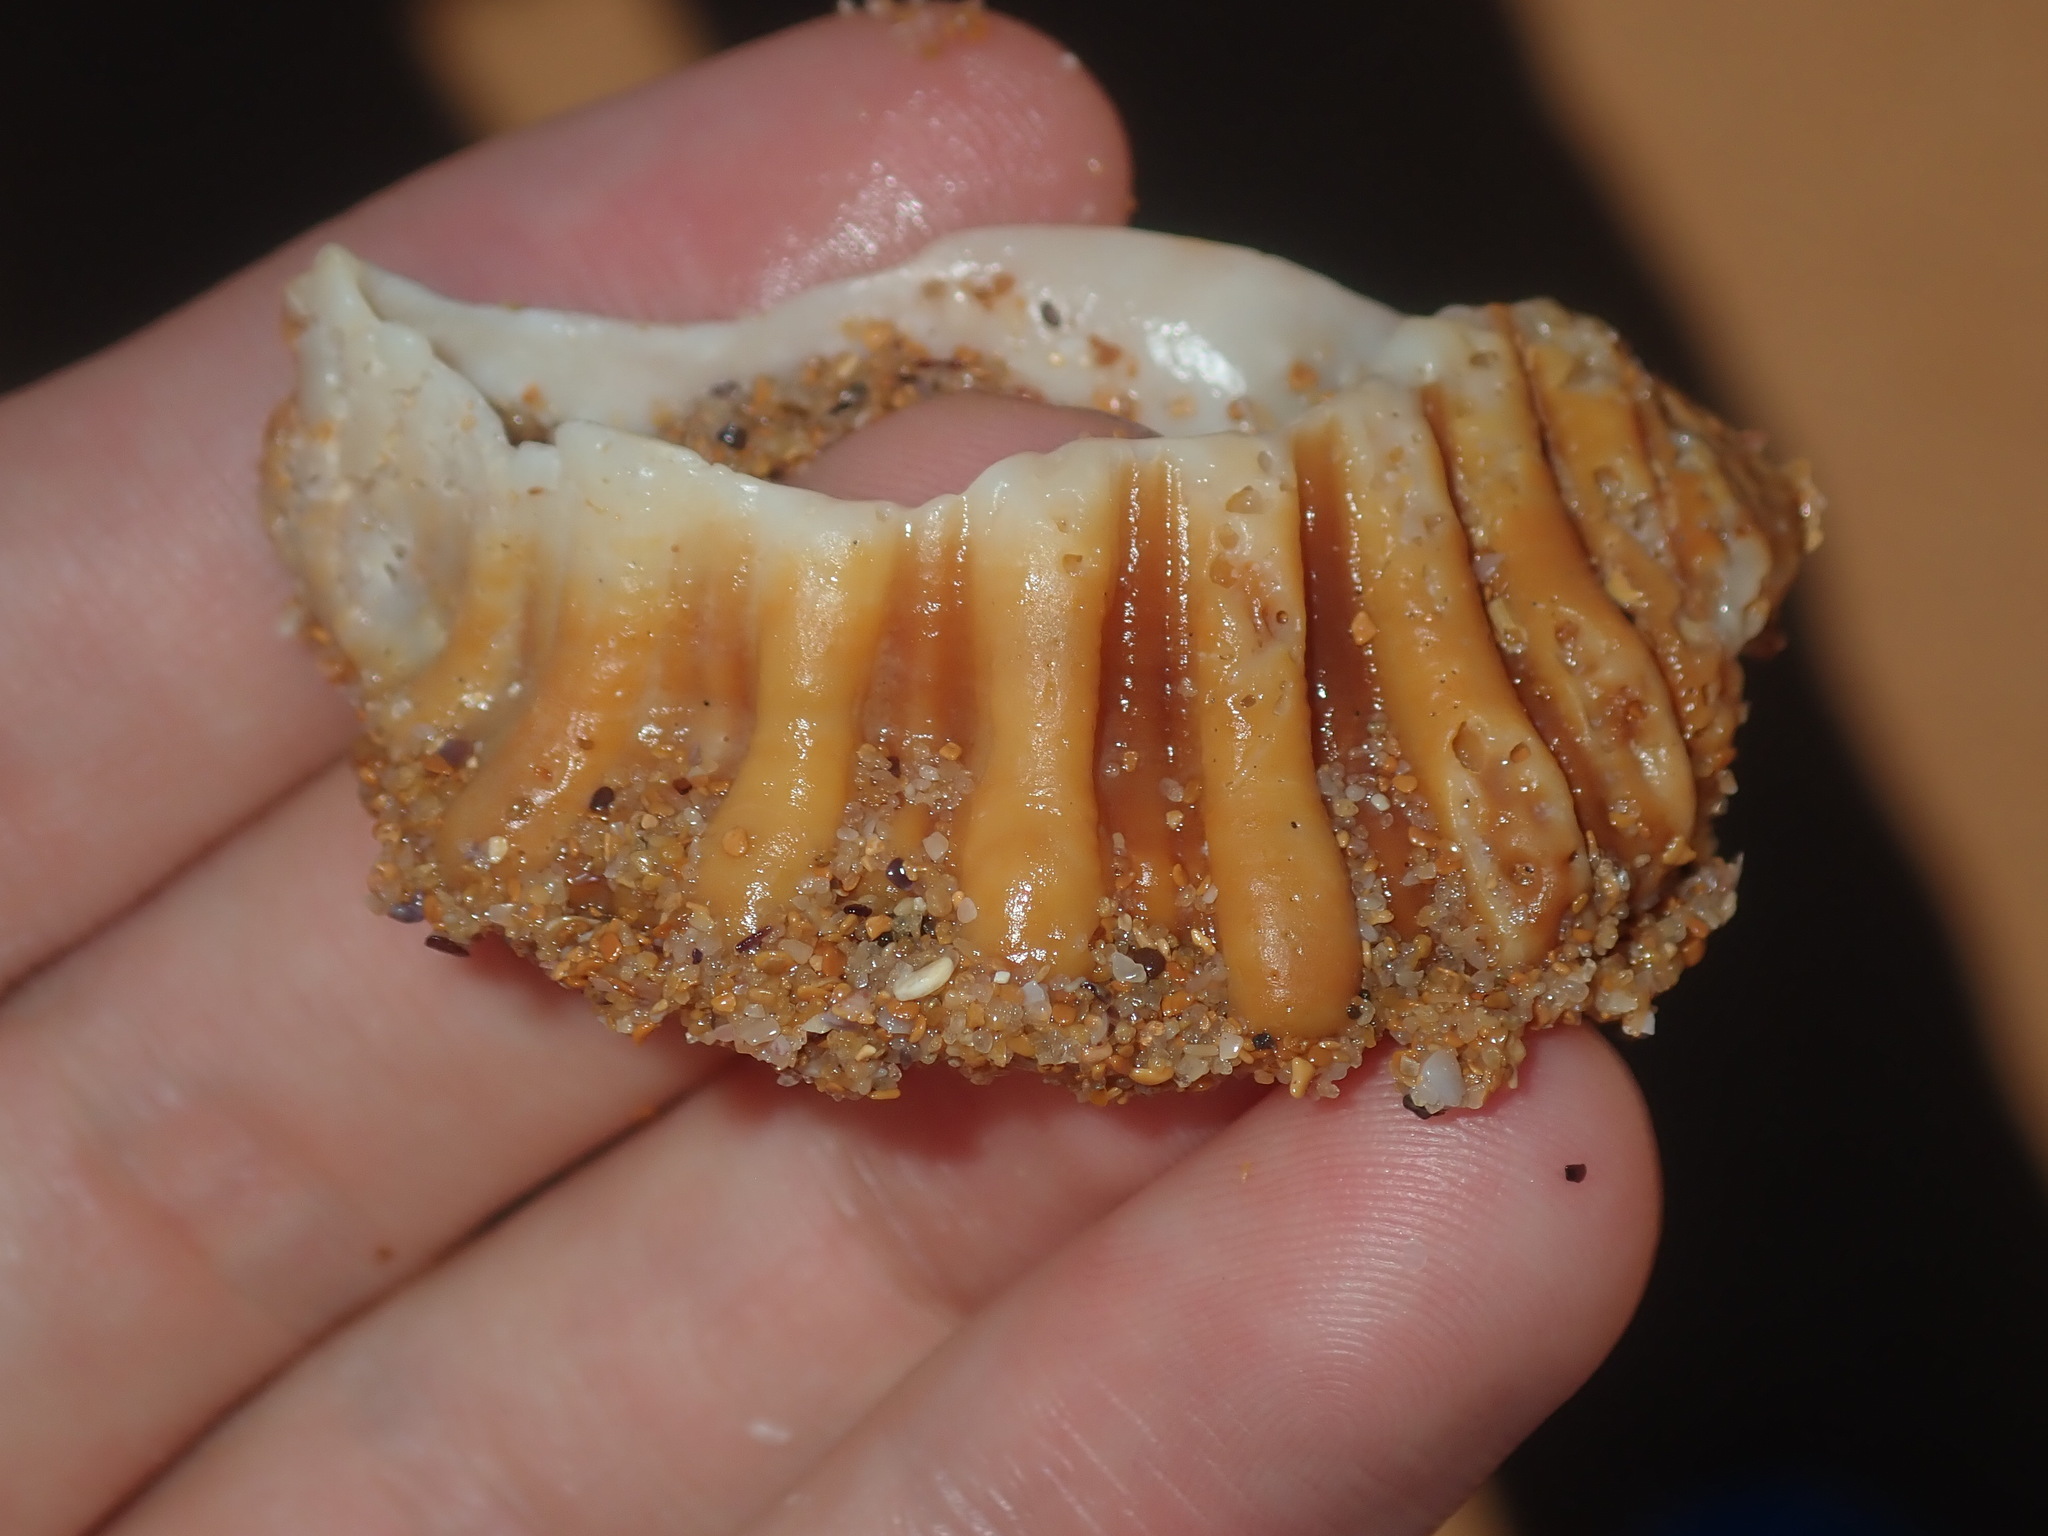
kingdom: Animalia
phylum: Mollusca
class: Gastropoda
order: Littorinimorpha
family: Cymatiidae
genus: Cabestana
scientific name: Cabestana spengleri
